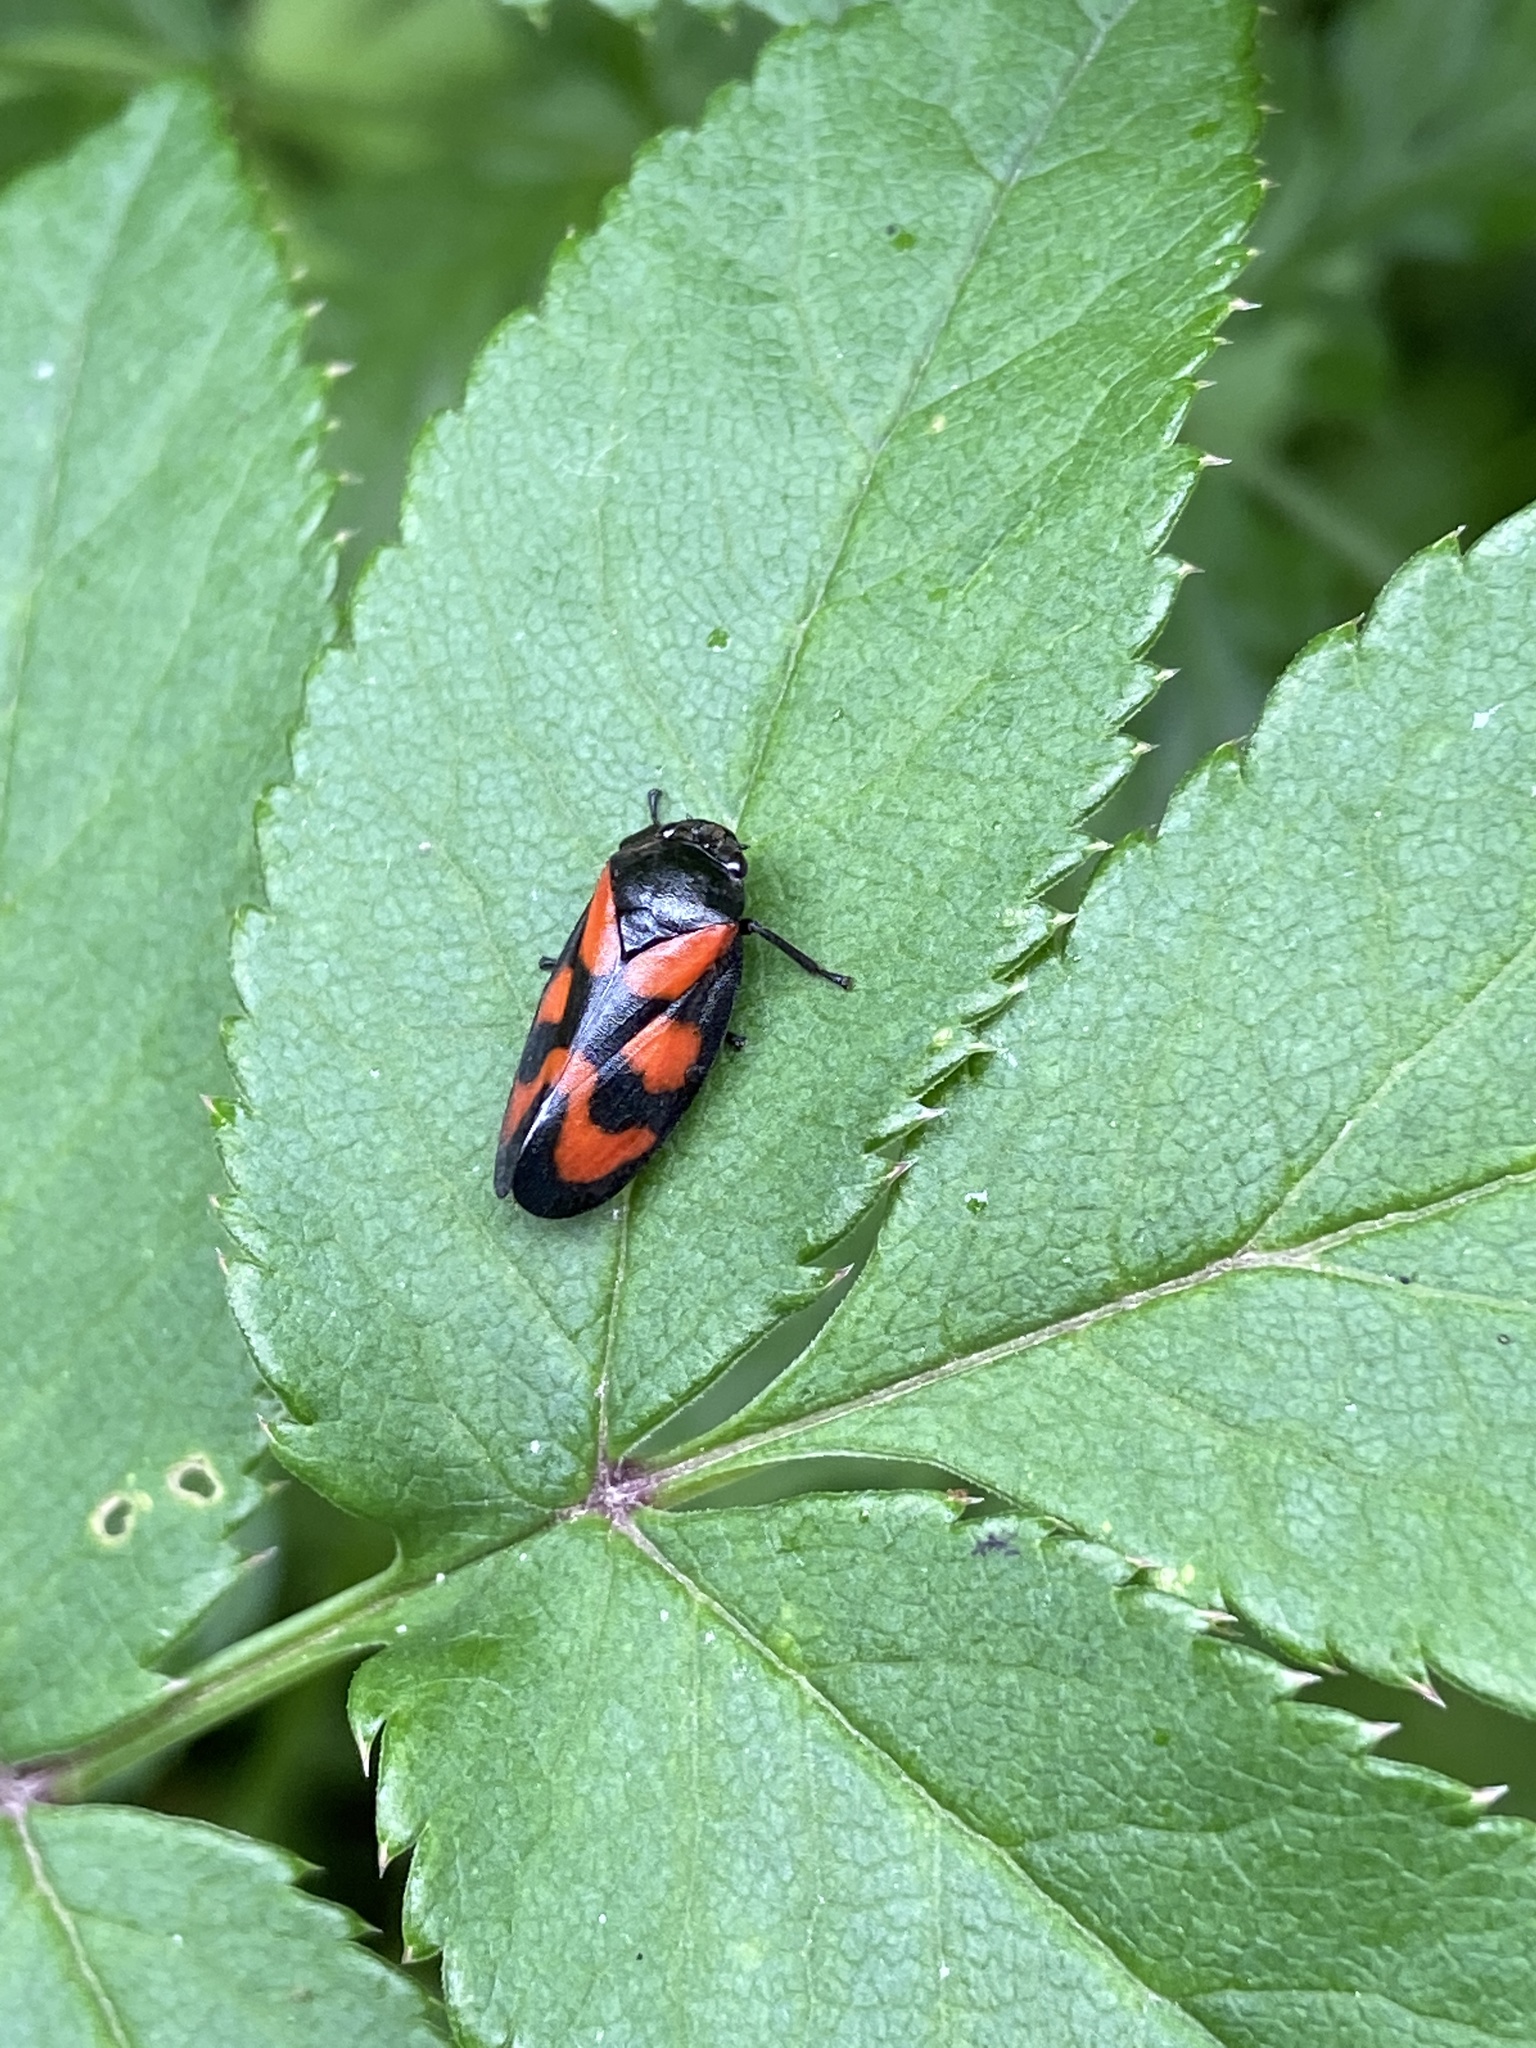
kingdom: Animalia
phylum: Arthropoda
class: Insecta
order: Hemiptera
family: Cercopidae
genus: Cercopis
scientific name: Cercopis vulnerata
